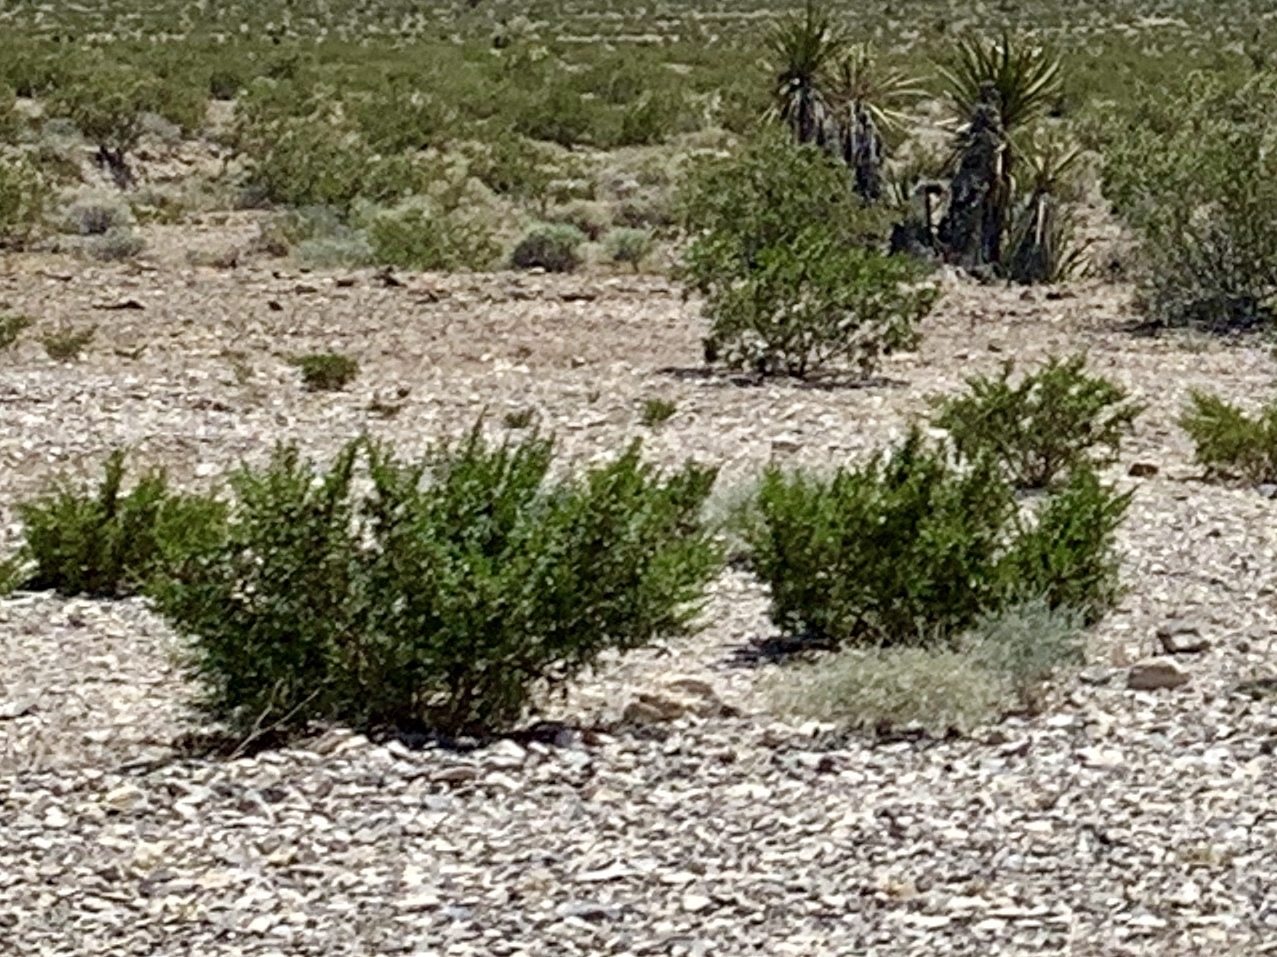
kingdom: Plantae
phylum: Tracheophyta
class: Magnoliopsida
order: Zygophyllales
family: Zygophyllaceae
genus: Larrea
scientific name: Larrea tridentata
